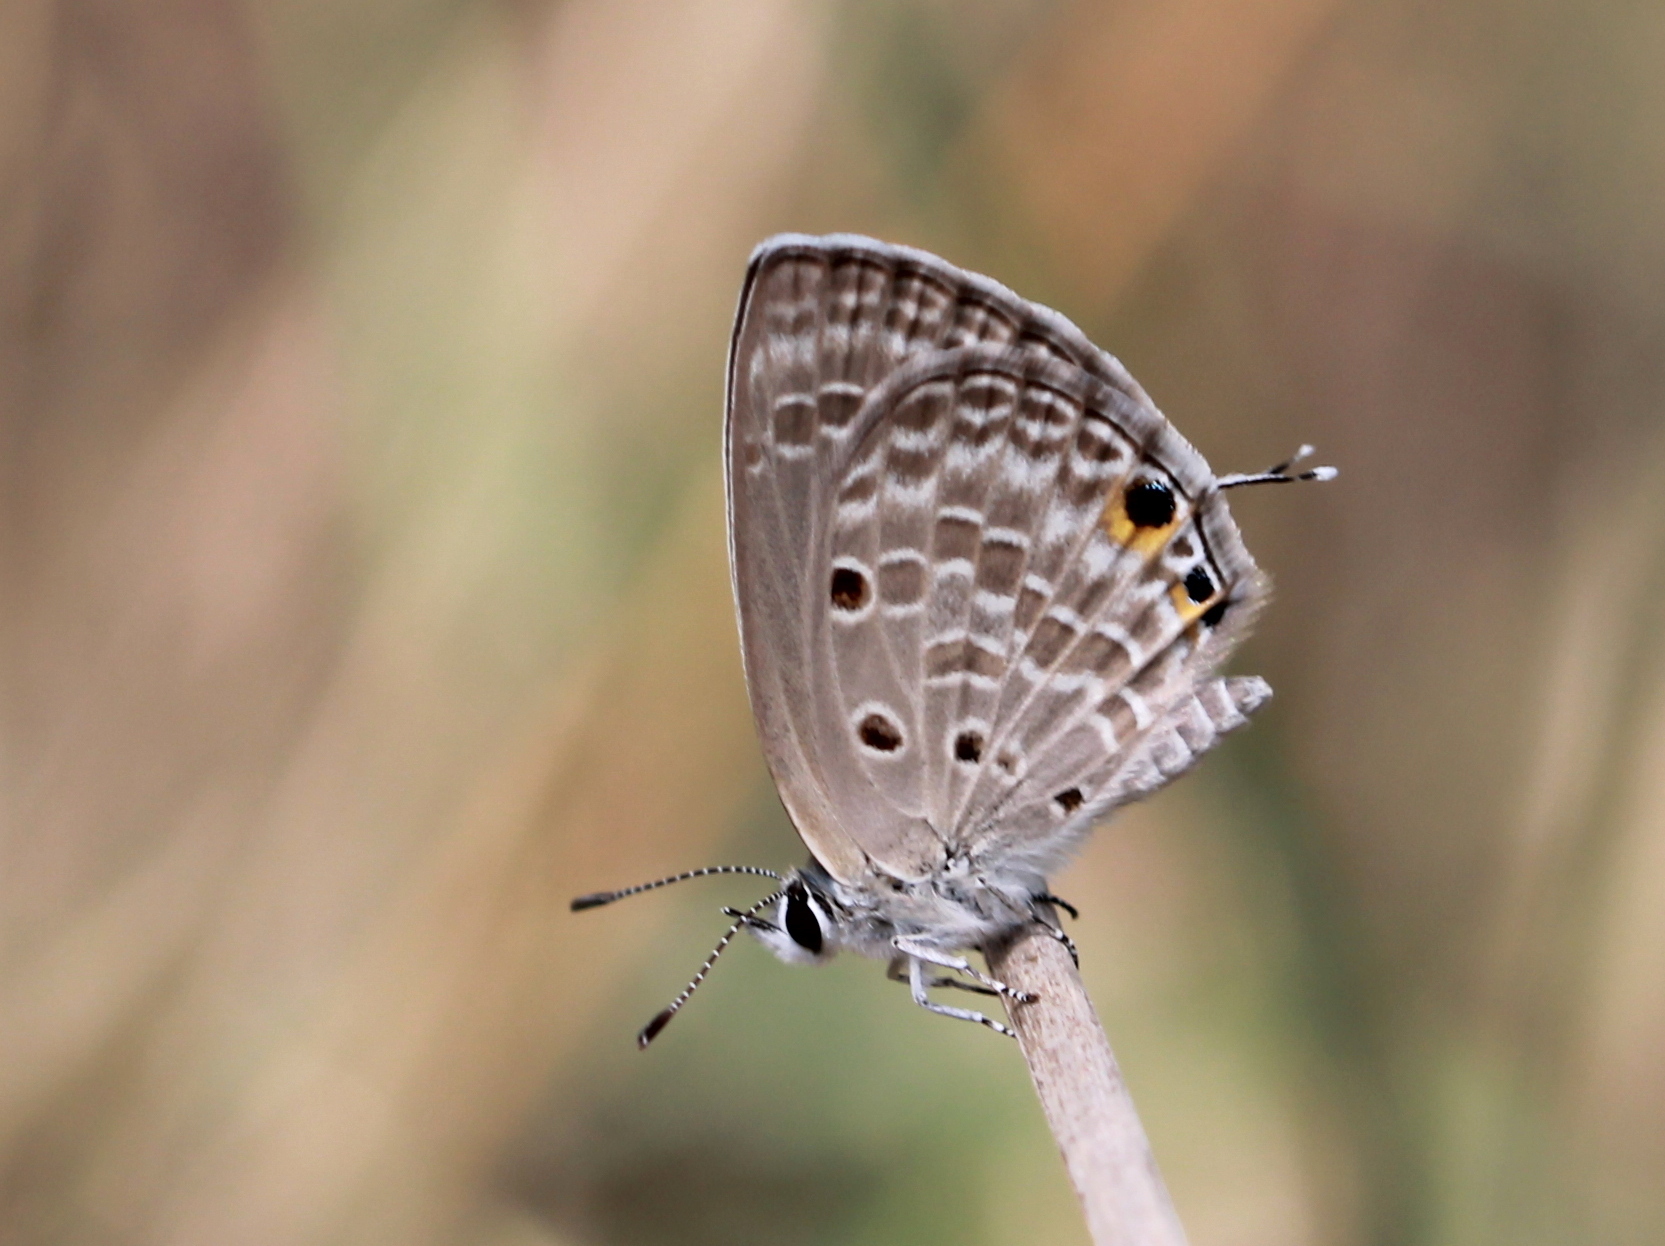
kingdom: Animalia
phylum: Arthropoda
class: Insecta
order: Lepidoptera
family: Lycaenidae
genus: Luthrodes
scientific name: Luthrodes pandava
